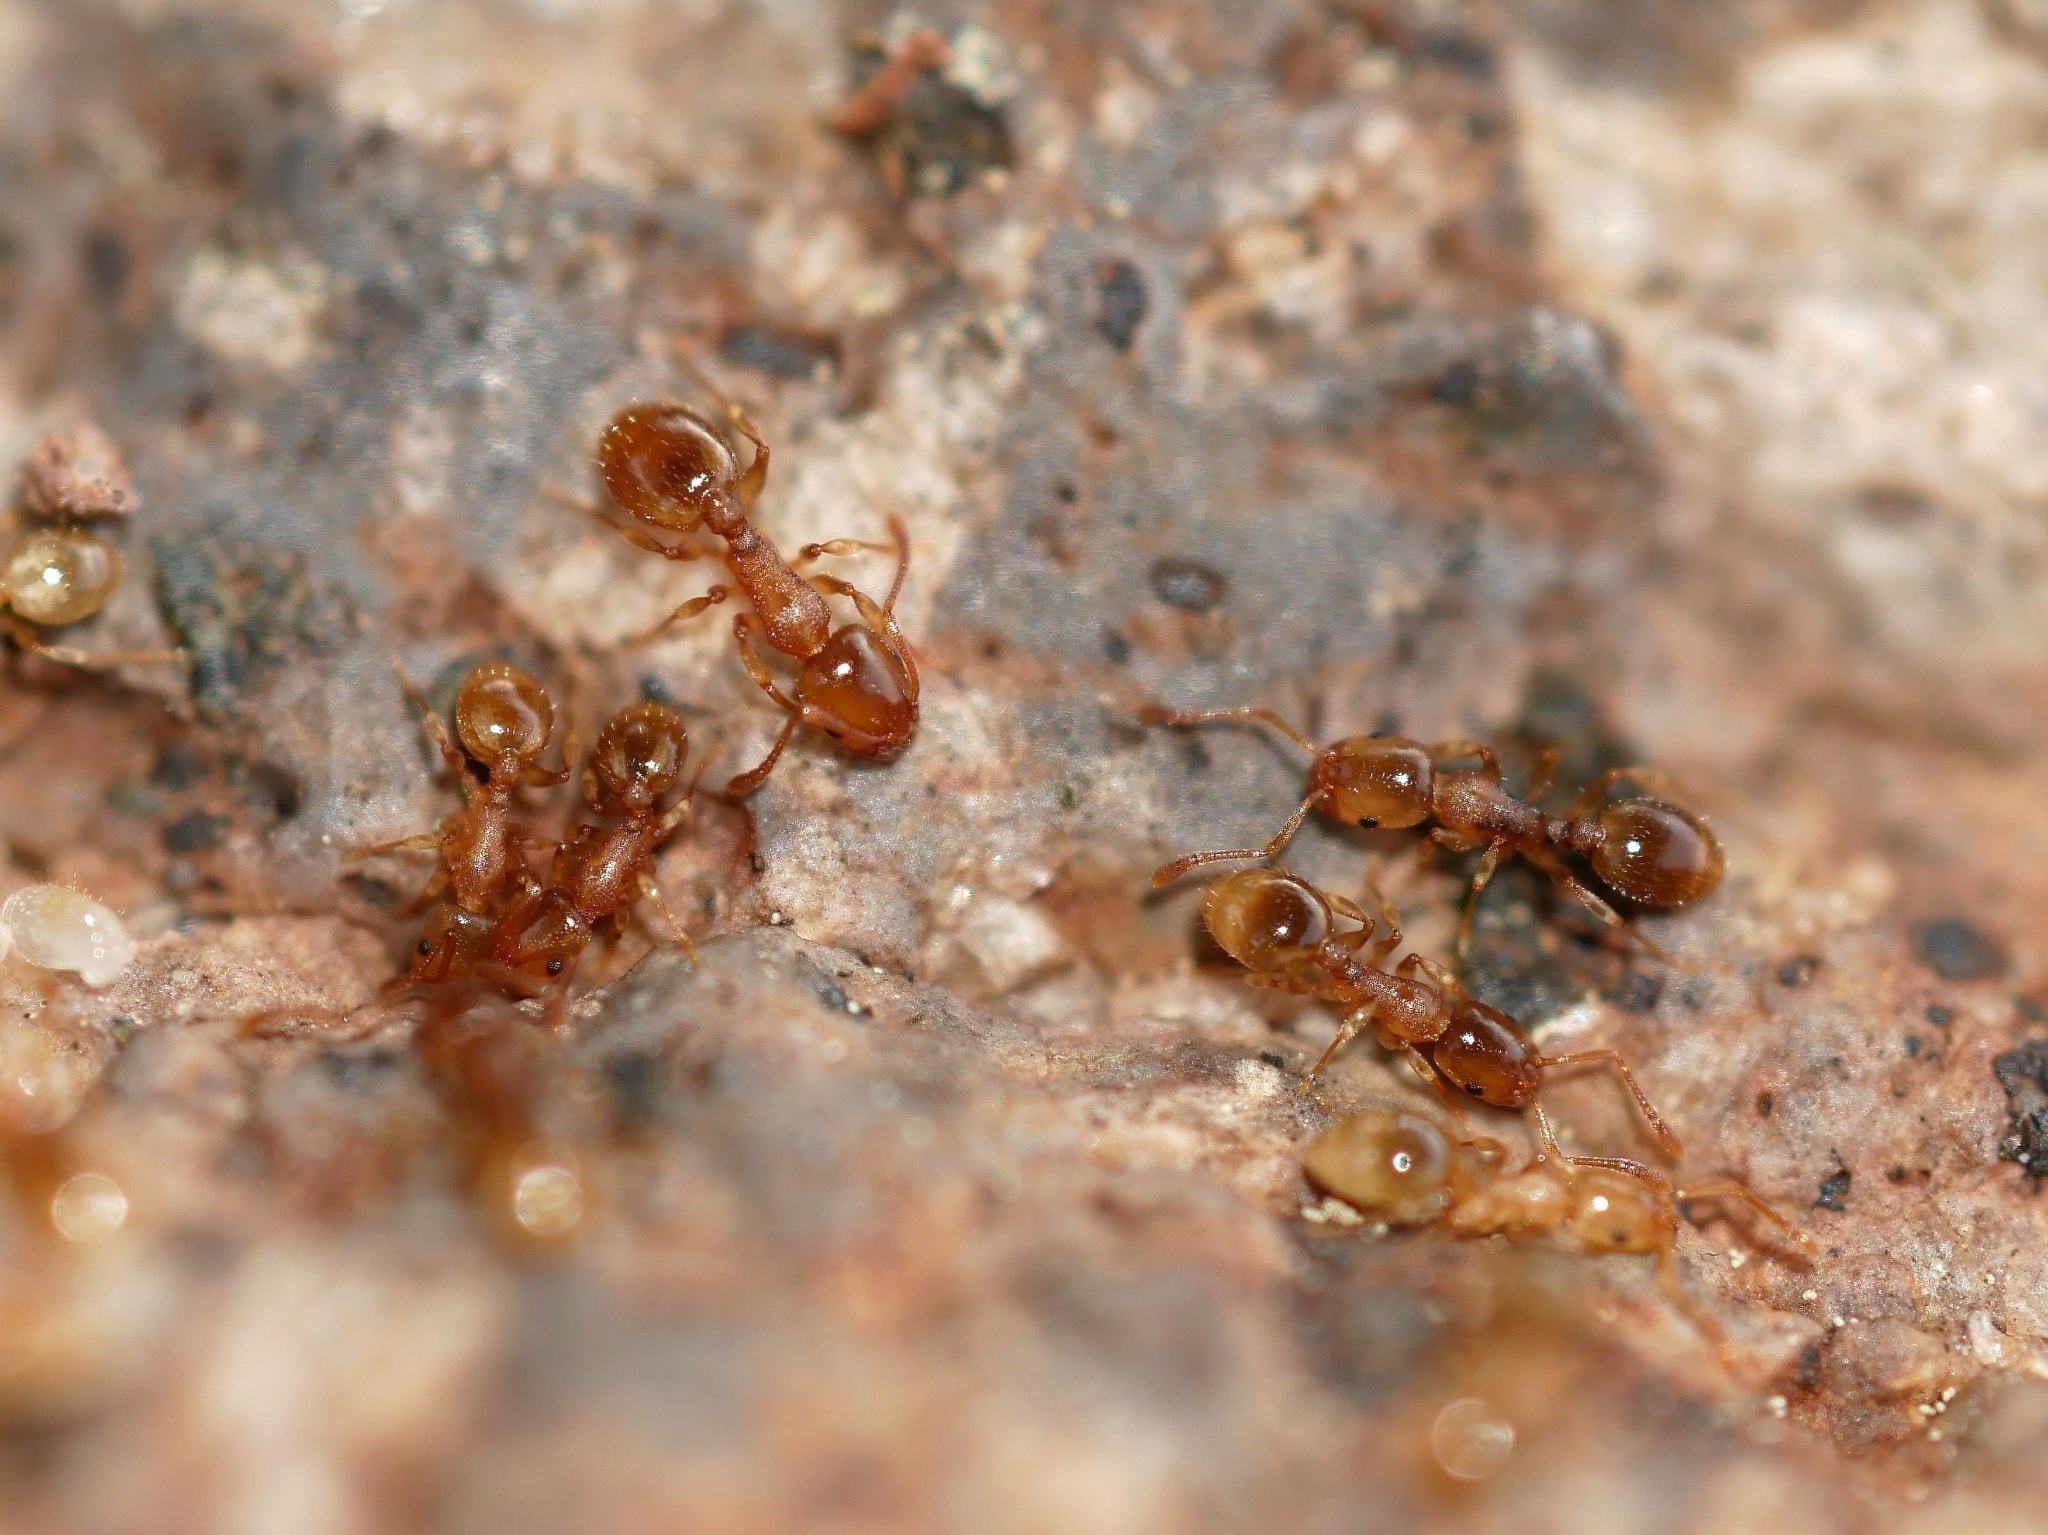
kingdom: Animalia
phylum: Arthropoda
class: Insecta
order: Hymenoptera
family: Formicidae
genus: Leptothorax
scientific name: Leptothorax nitens
